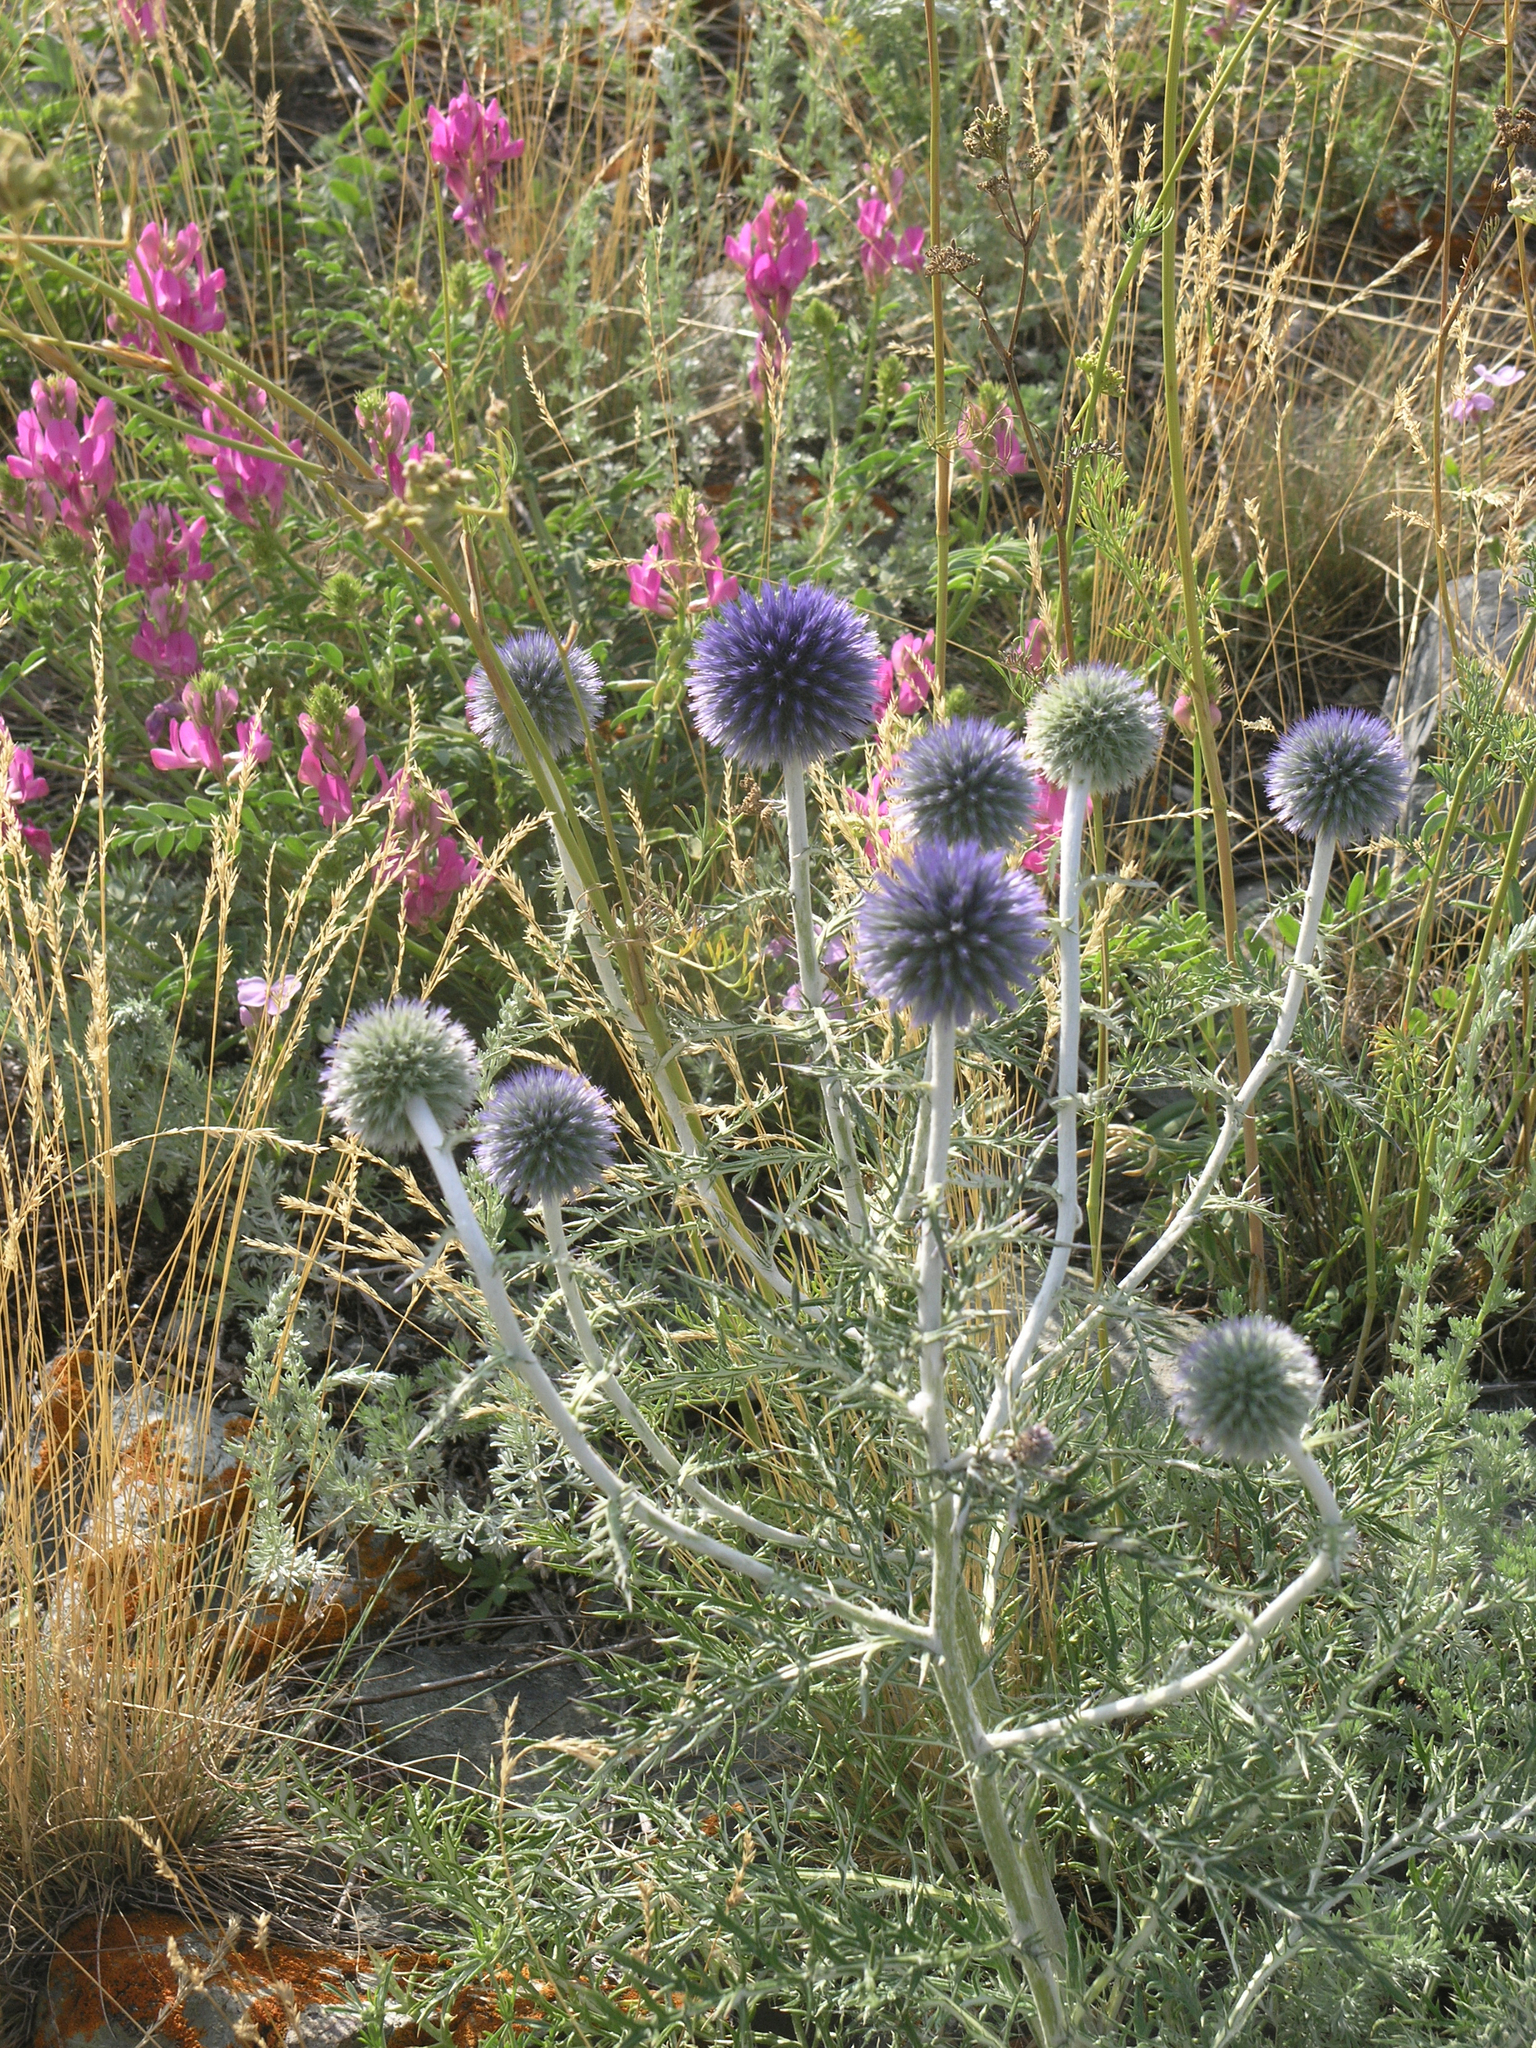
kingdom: Plantae
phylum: Tracheophyta
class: Magnoliopsida
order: Asterales
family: Asteraceae
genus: Echinops
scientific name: Echinops ritro
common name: Globe thistle
